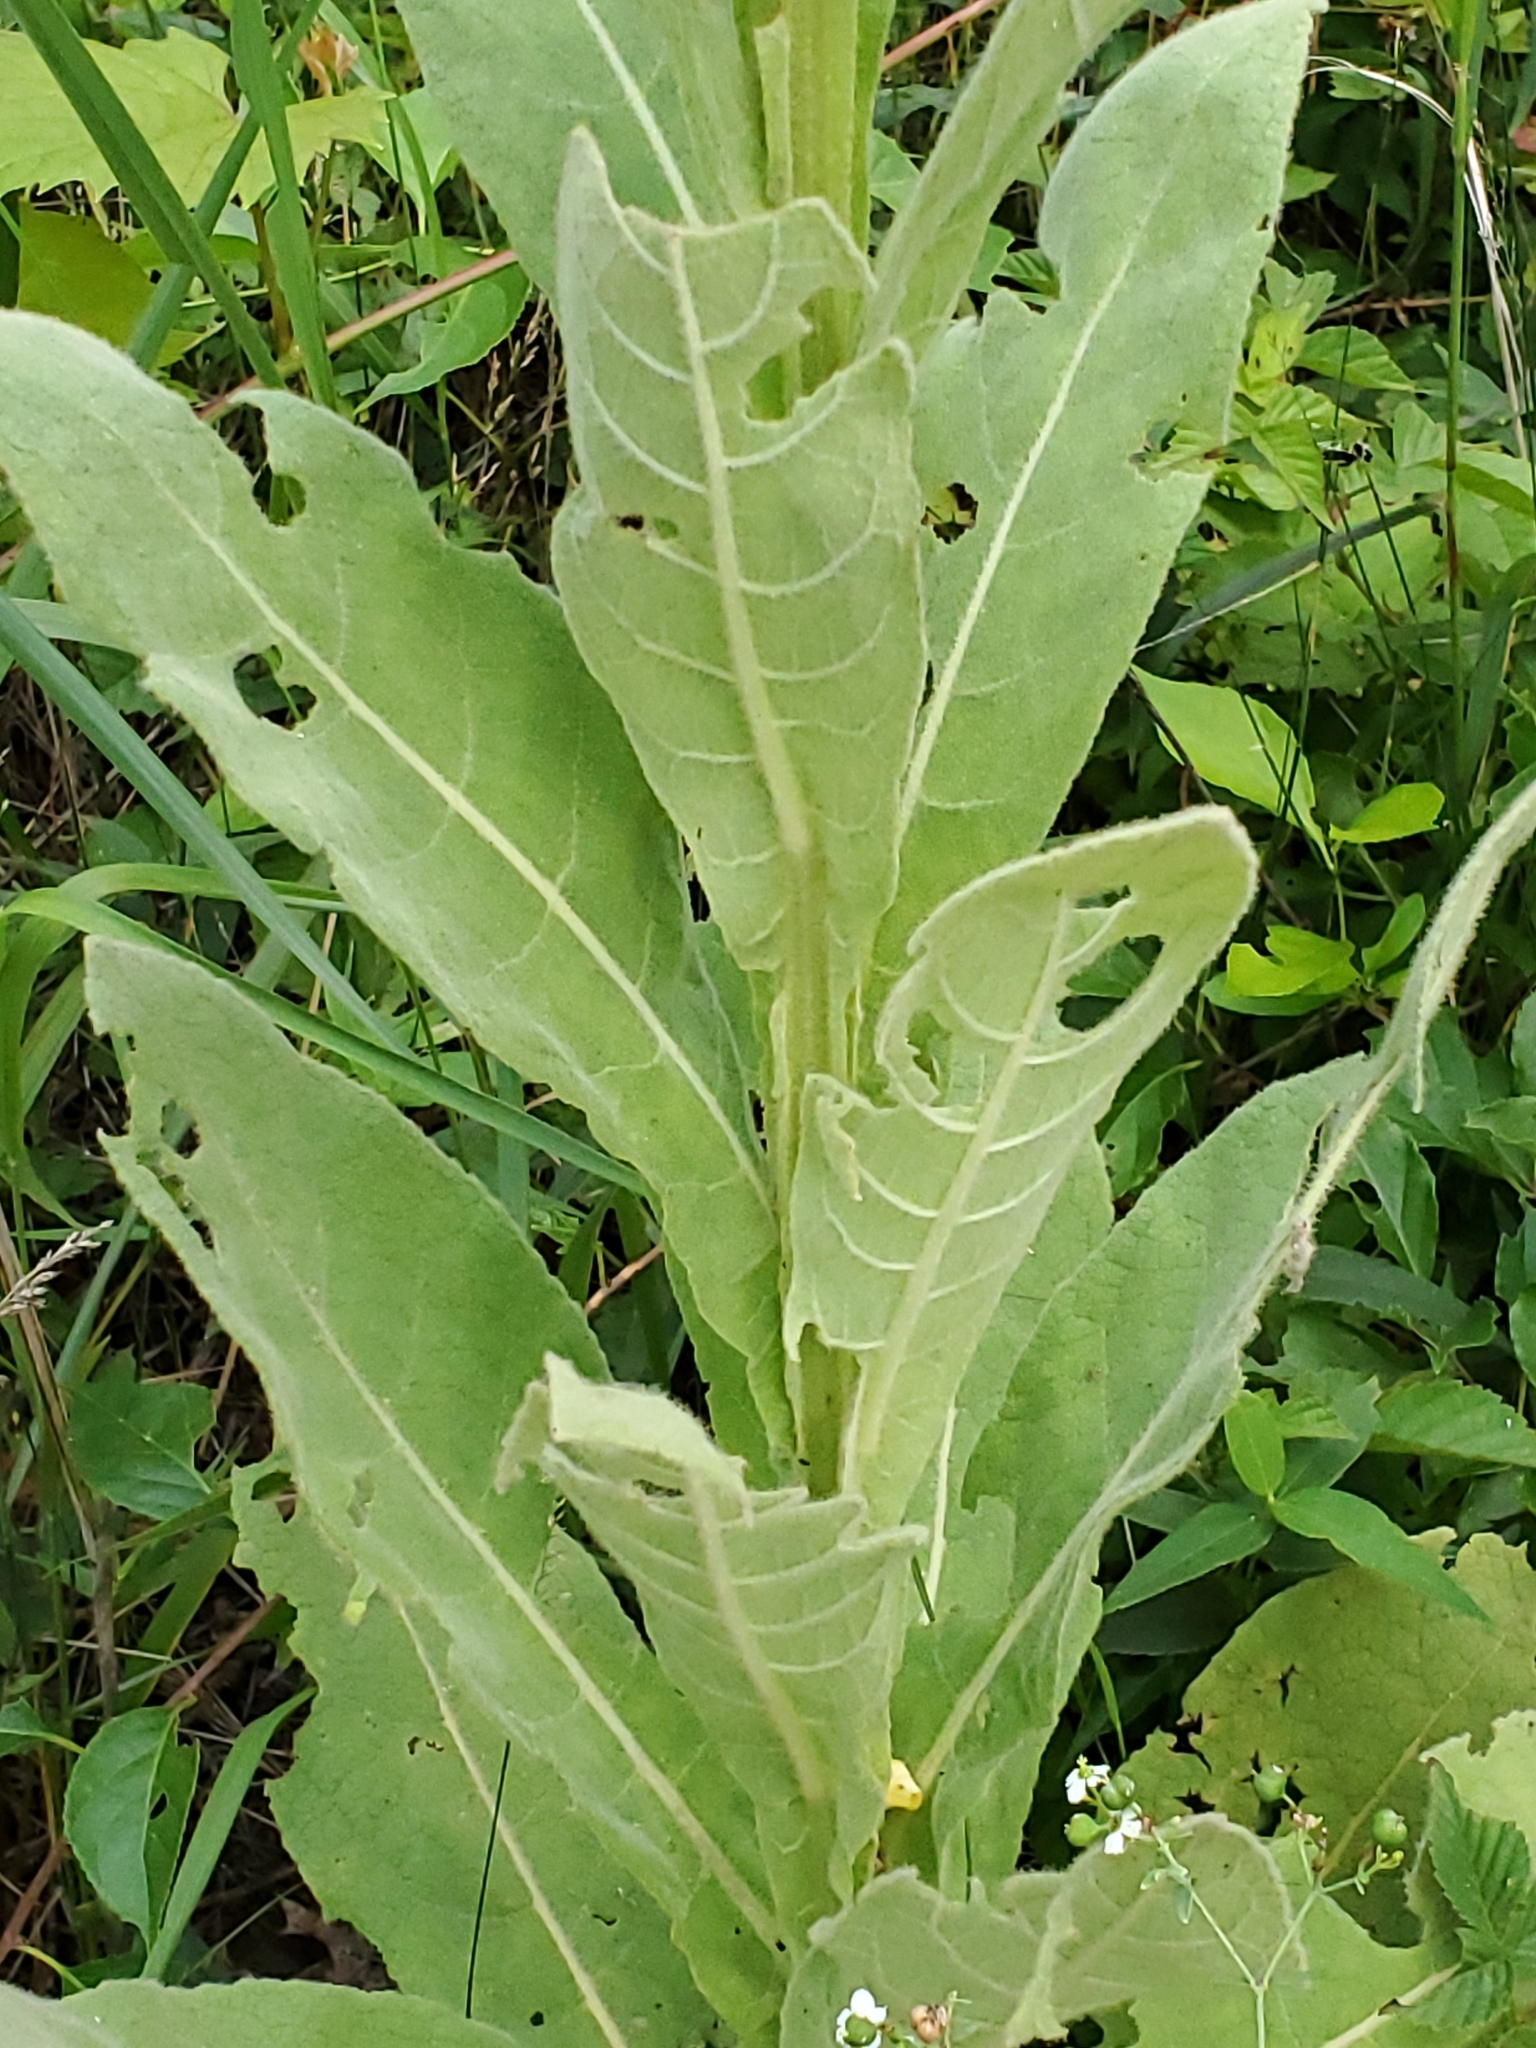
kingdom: Plantae
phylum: Tracheophyta
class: Magnoliopsida
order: Lamiales
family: Scrophulariaceae
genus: Verbascum
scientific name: Verbascum thapsus
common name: Common mullein
